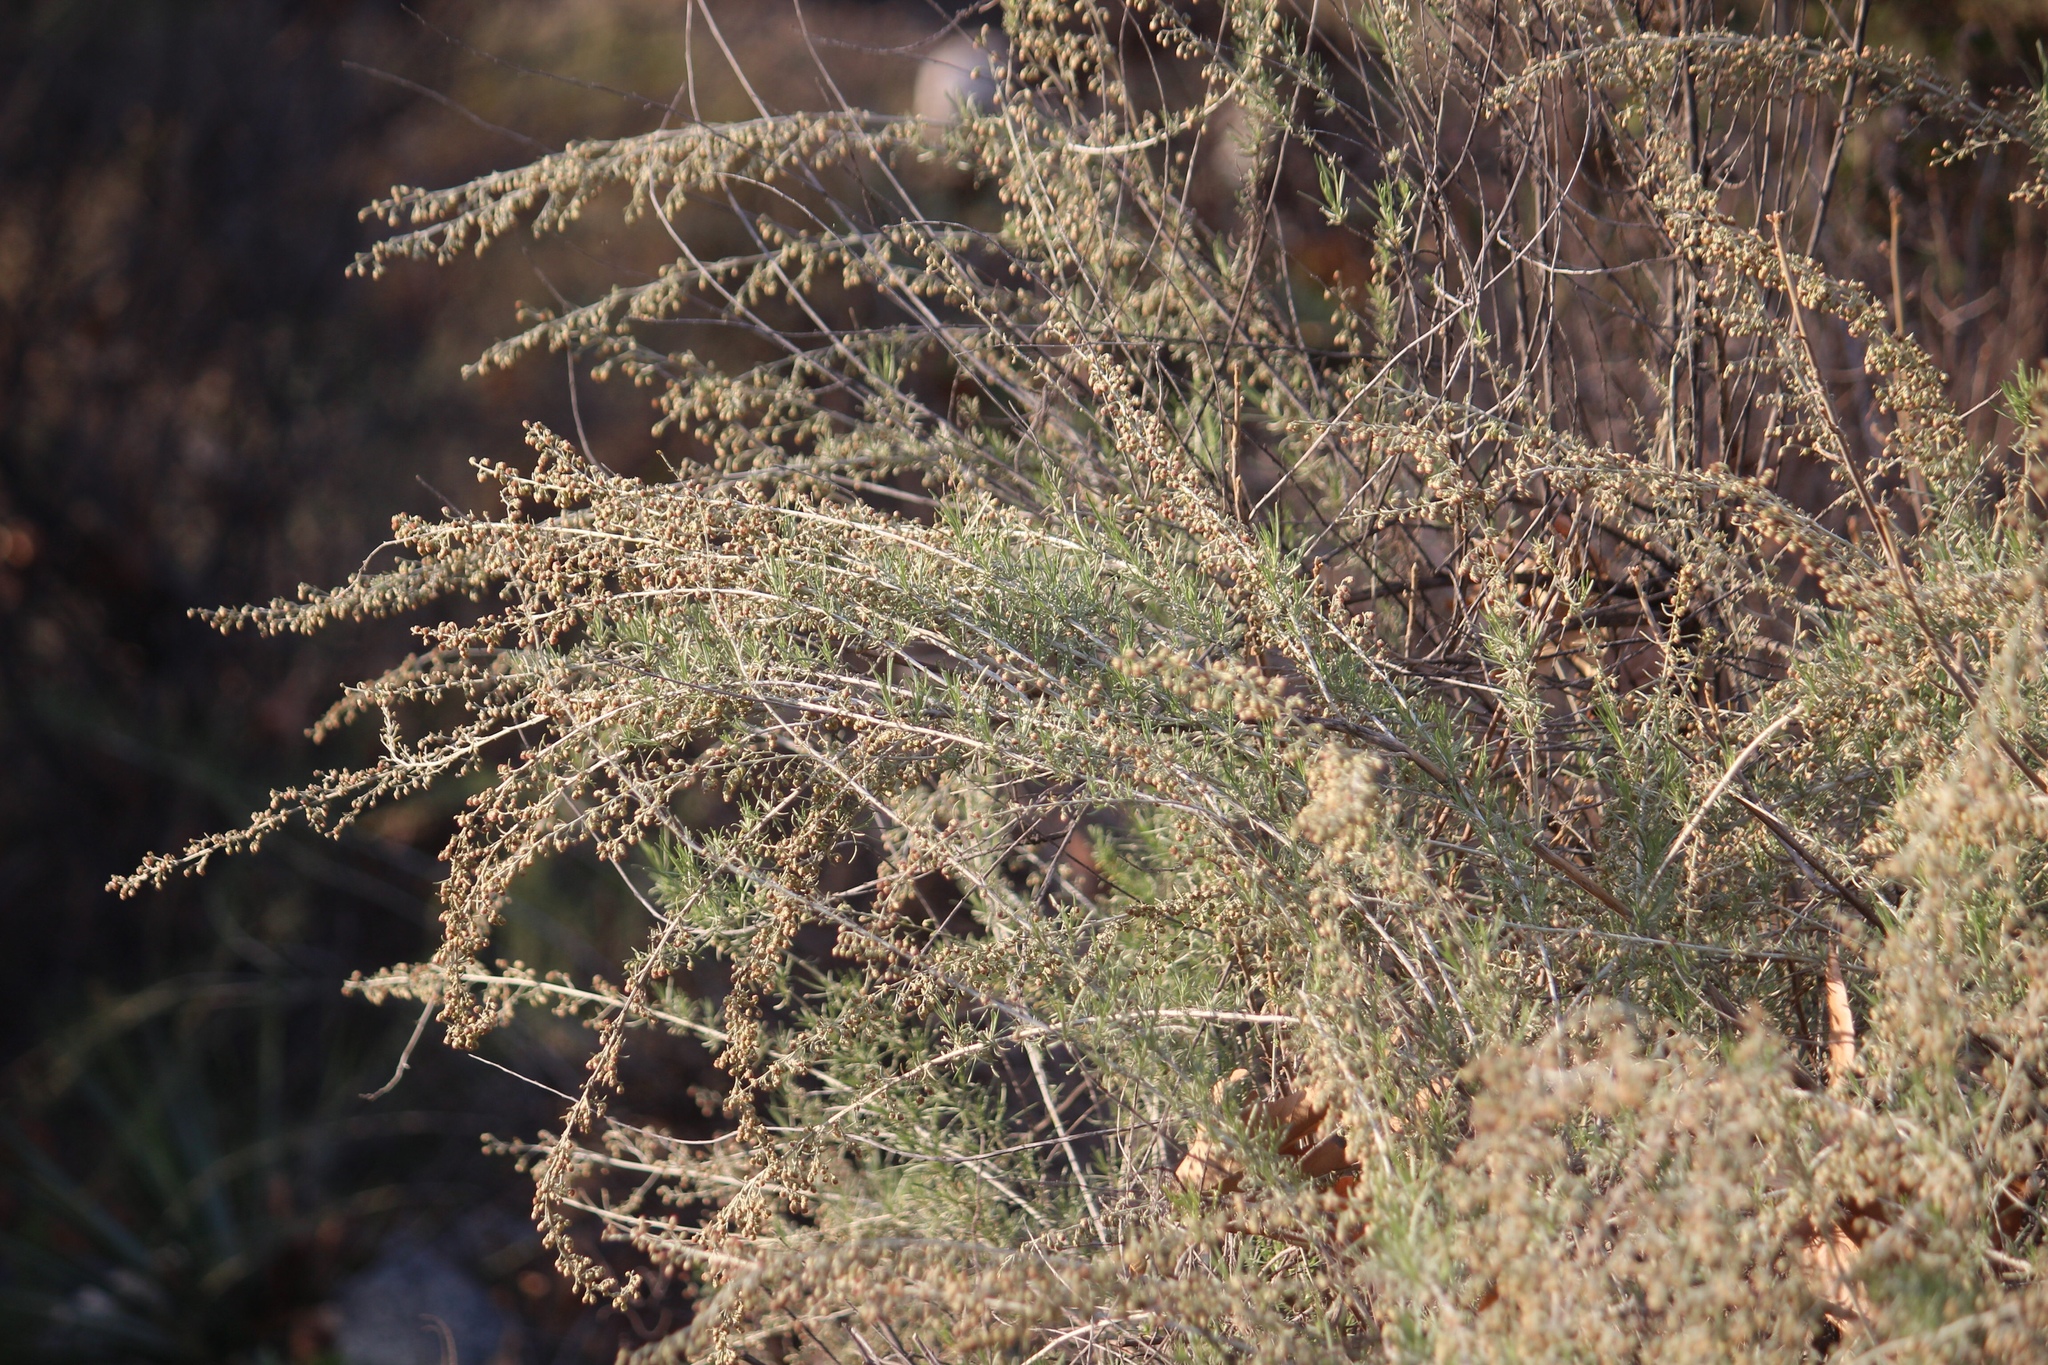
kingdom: Plantae
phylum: Tracheophyta
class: Magnoliopsida
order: Asterales
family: Asteraceae
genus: Artemisia
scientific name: Artemisia californica
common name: California sagebrush
